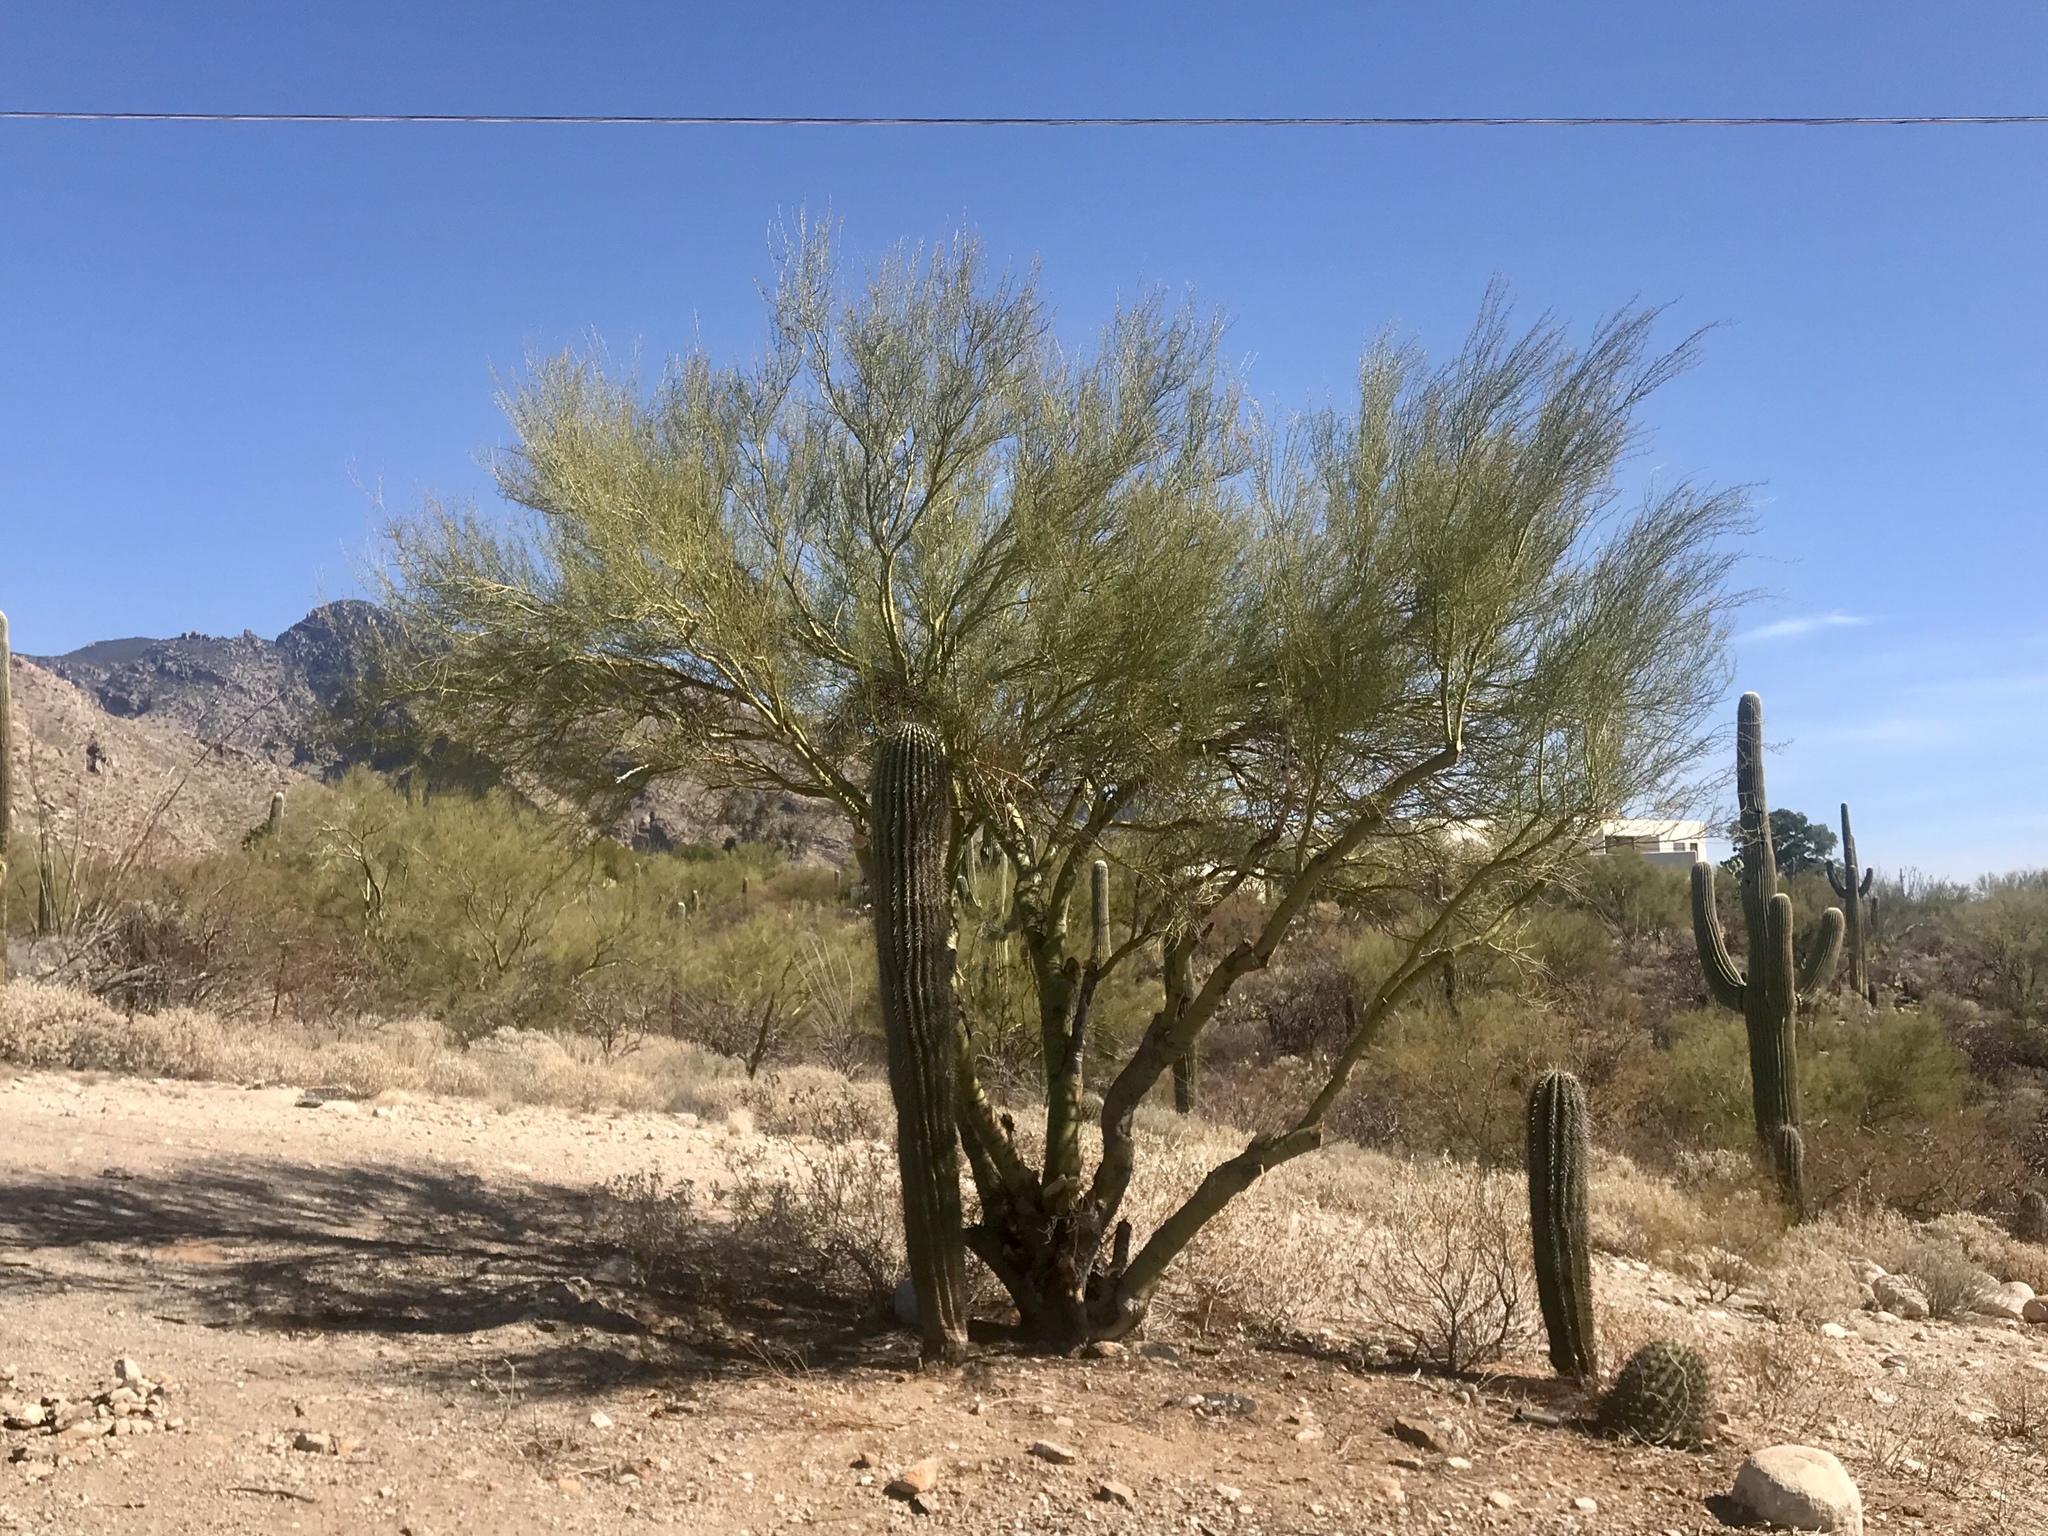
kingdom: Plantae
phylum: Tracheophyta
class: Magnoliopsida
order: Fabales
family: Fabaceae
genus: Parkinsonia
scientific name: Parkinsonia microphylla
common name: Yellow paloverde
